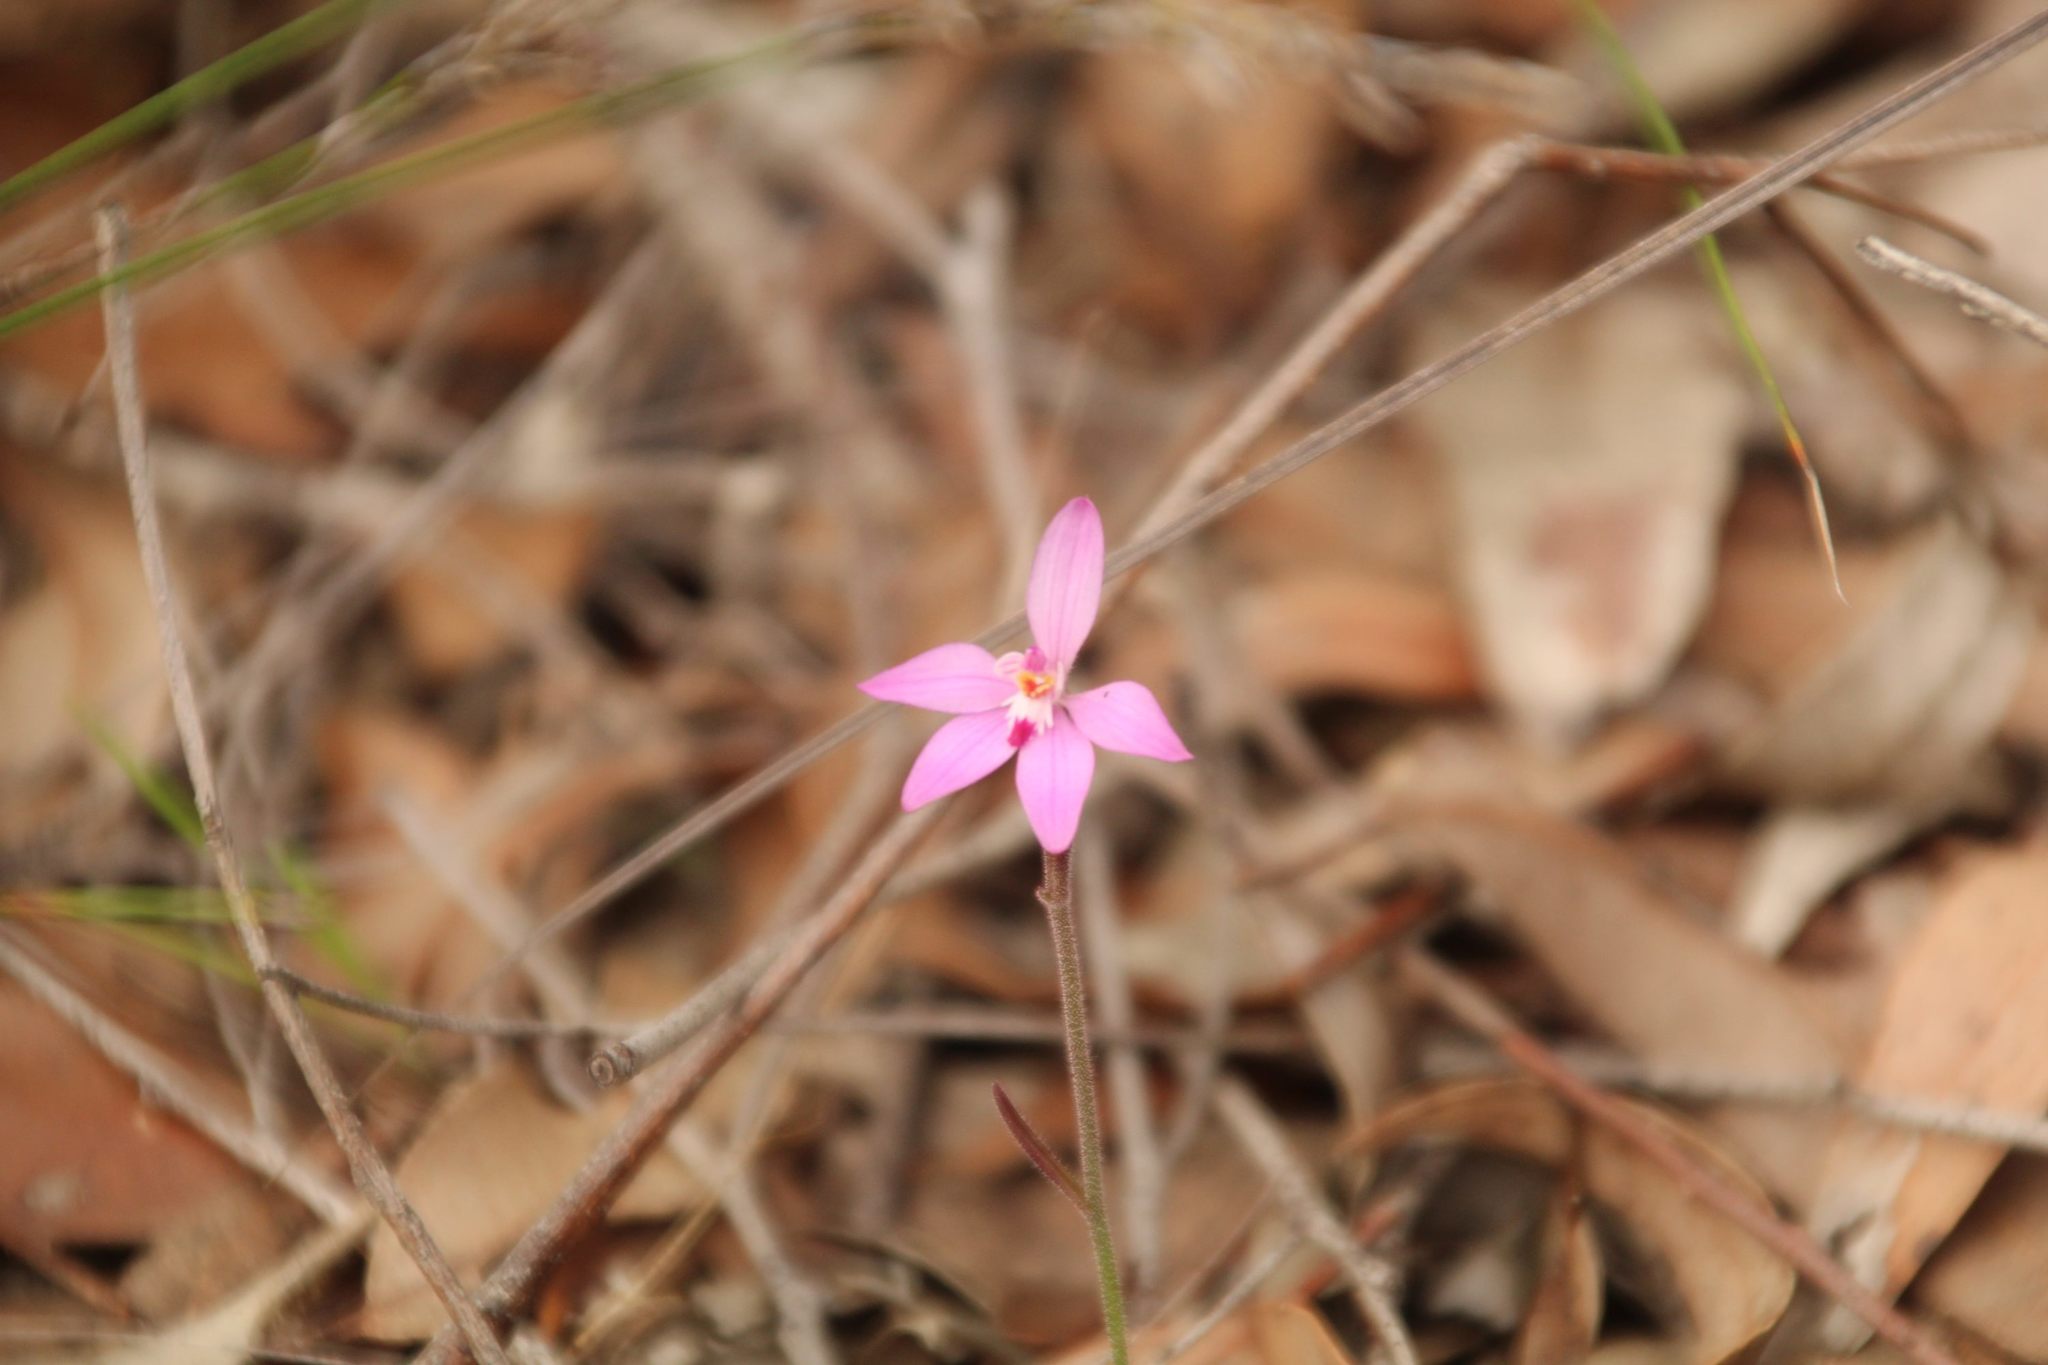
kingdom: Plantae
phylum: Tracheophyta
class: Liliopsida
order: Asparagales
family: Orchidaceae
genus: Caladenia
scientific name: Caladenia reptans
